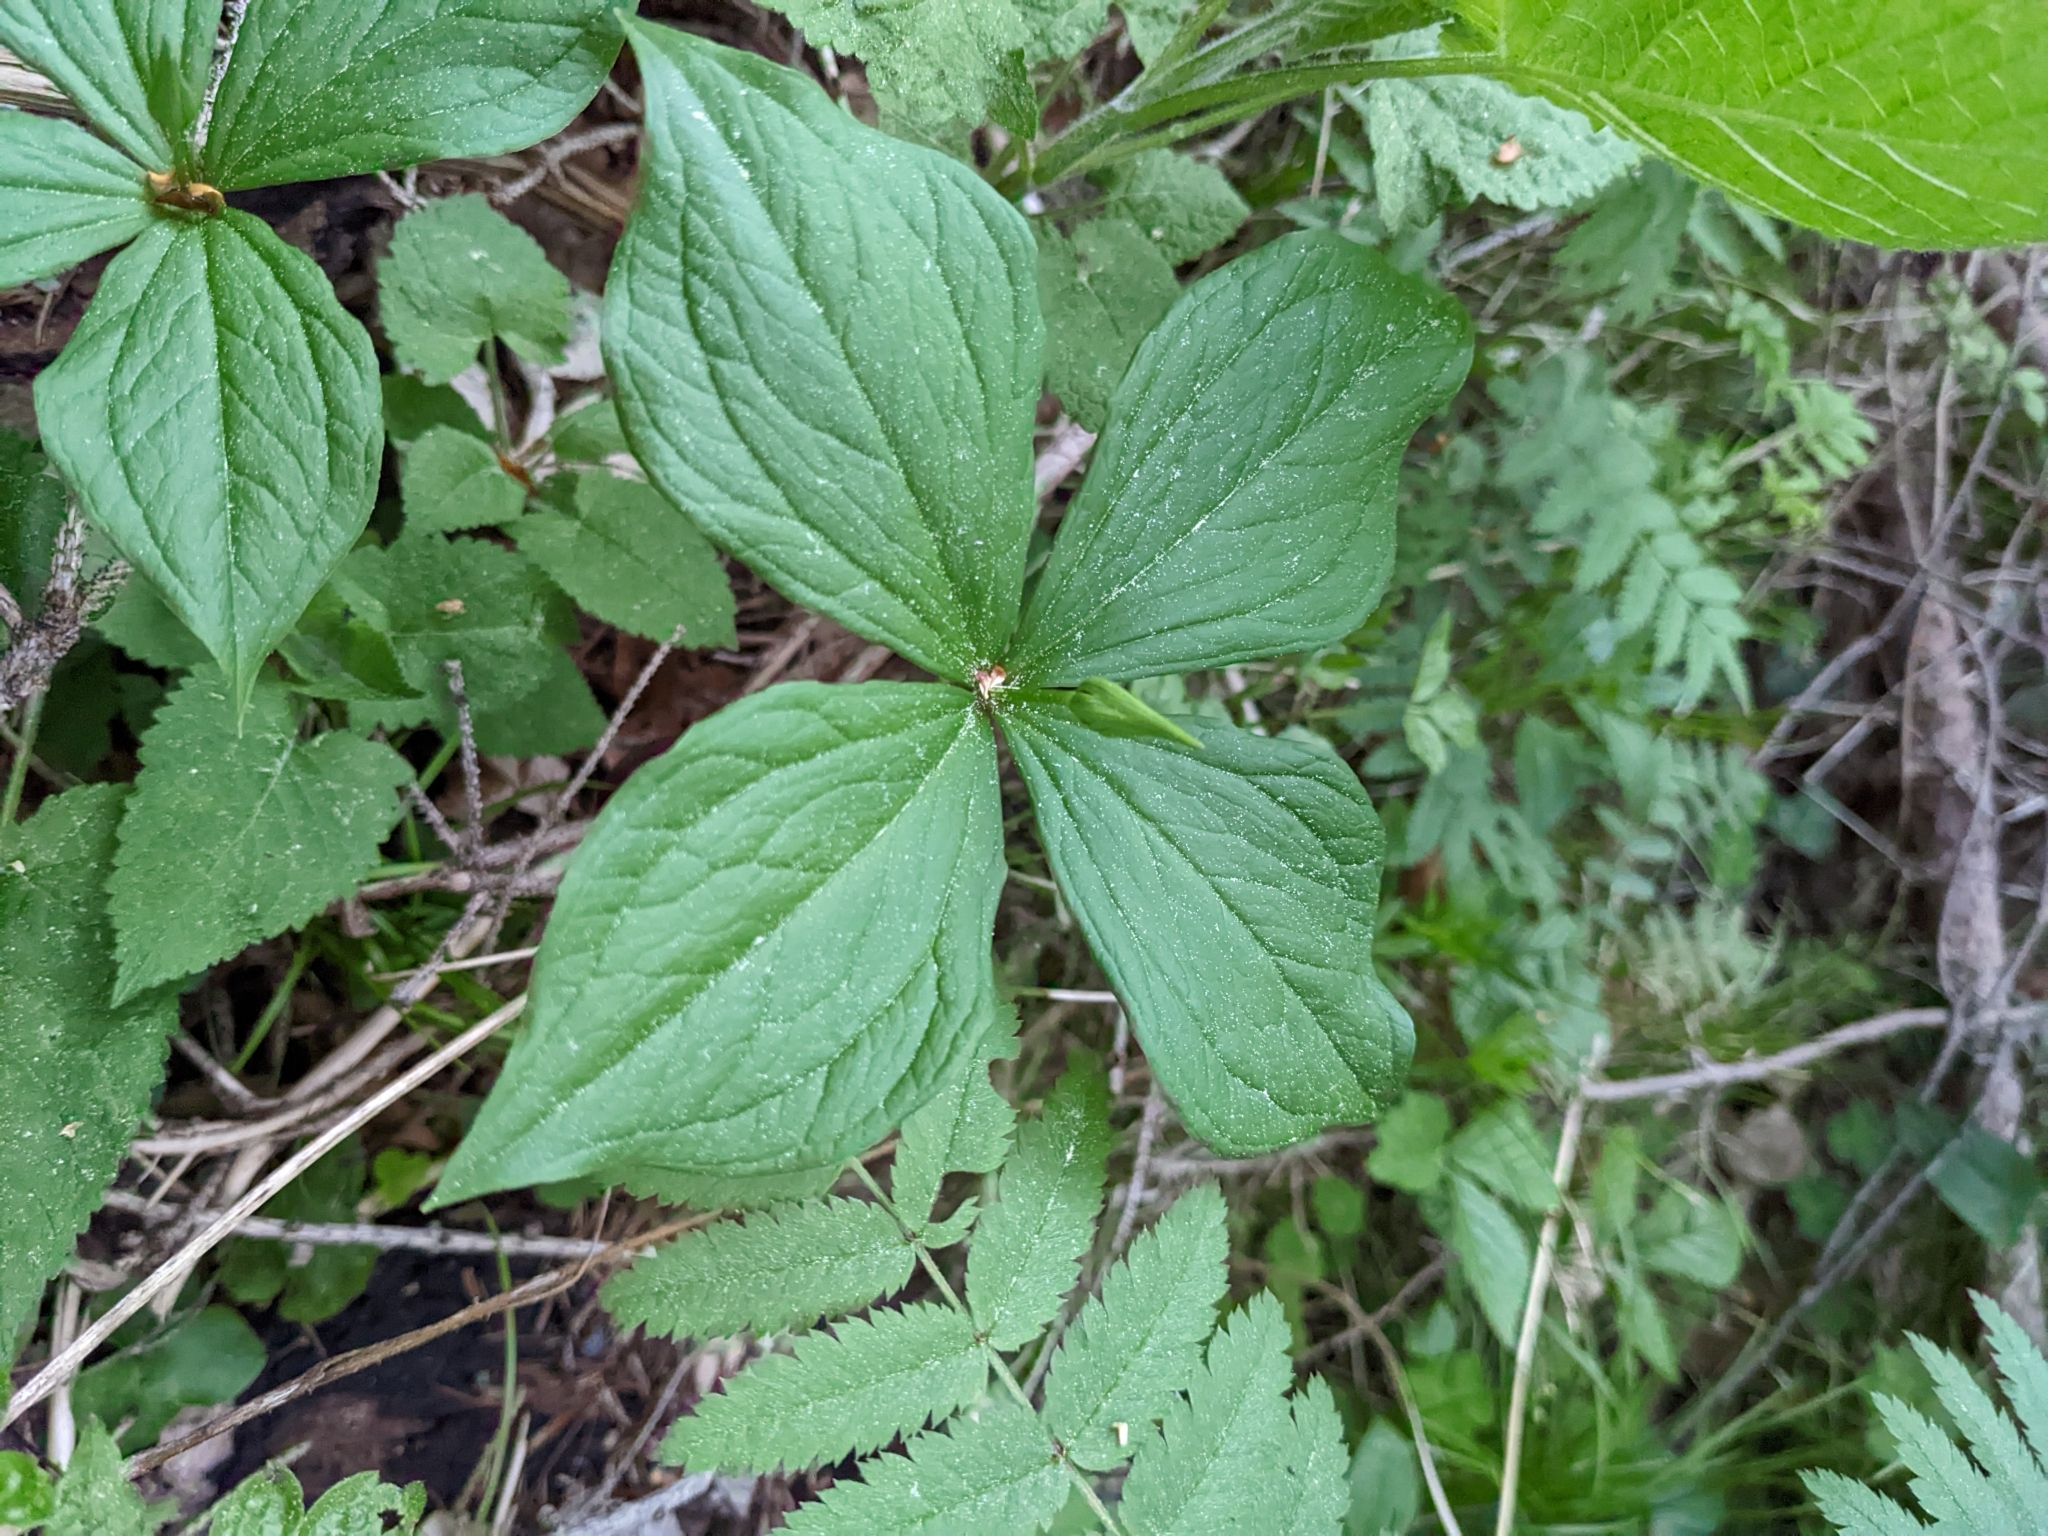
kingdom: Plantae
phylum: Tracheophyta
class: Liliopsida
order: Liliales
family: Melanthiaceae
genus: Paris
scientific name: Paris quadrifolia
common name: Herb-paris
